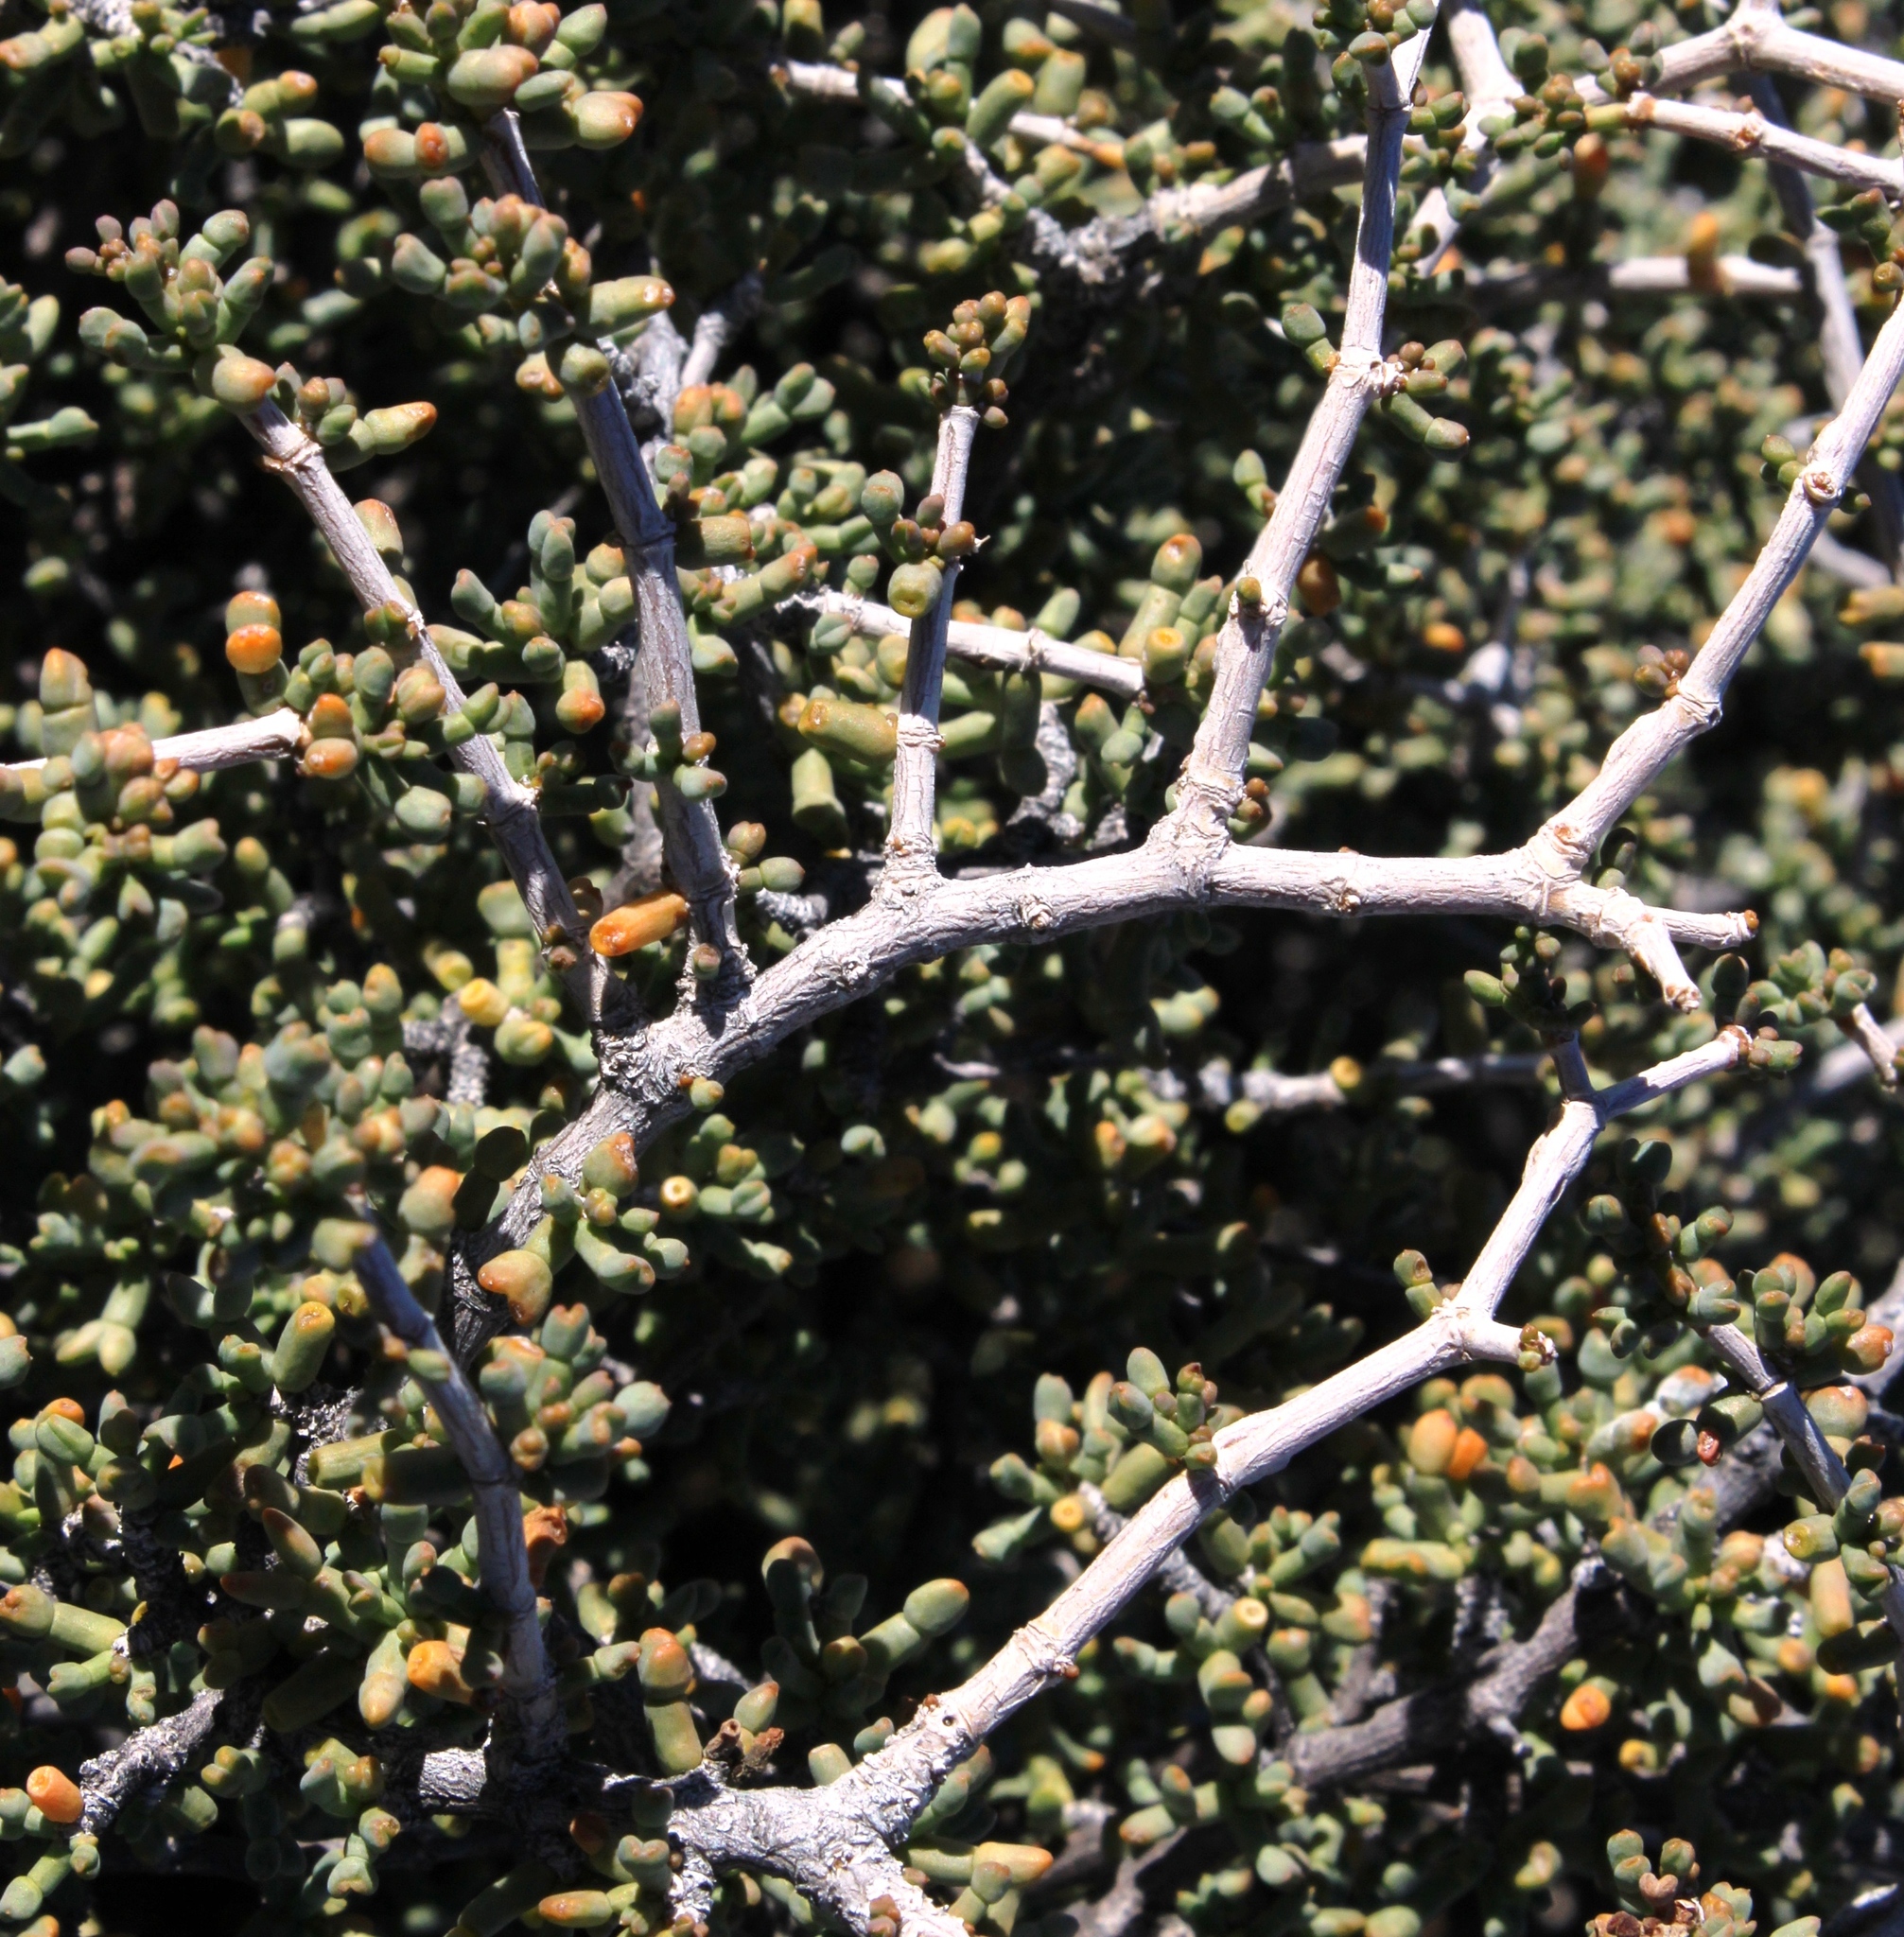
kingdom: Plantae
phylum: Tracheophyta
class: Magnoliopsida
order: Zygophyllales
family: Zygophyllaceae
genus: Tetraena
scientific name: Tetraena retrofracta
